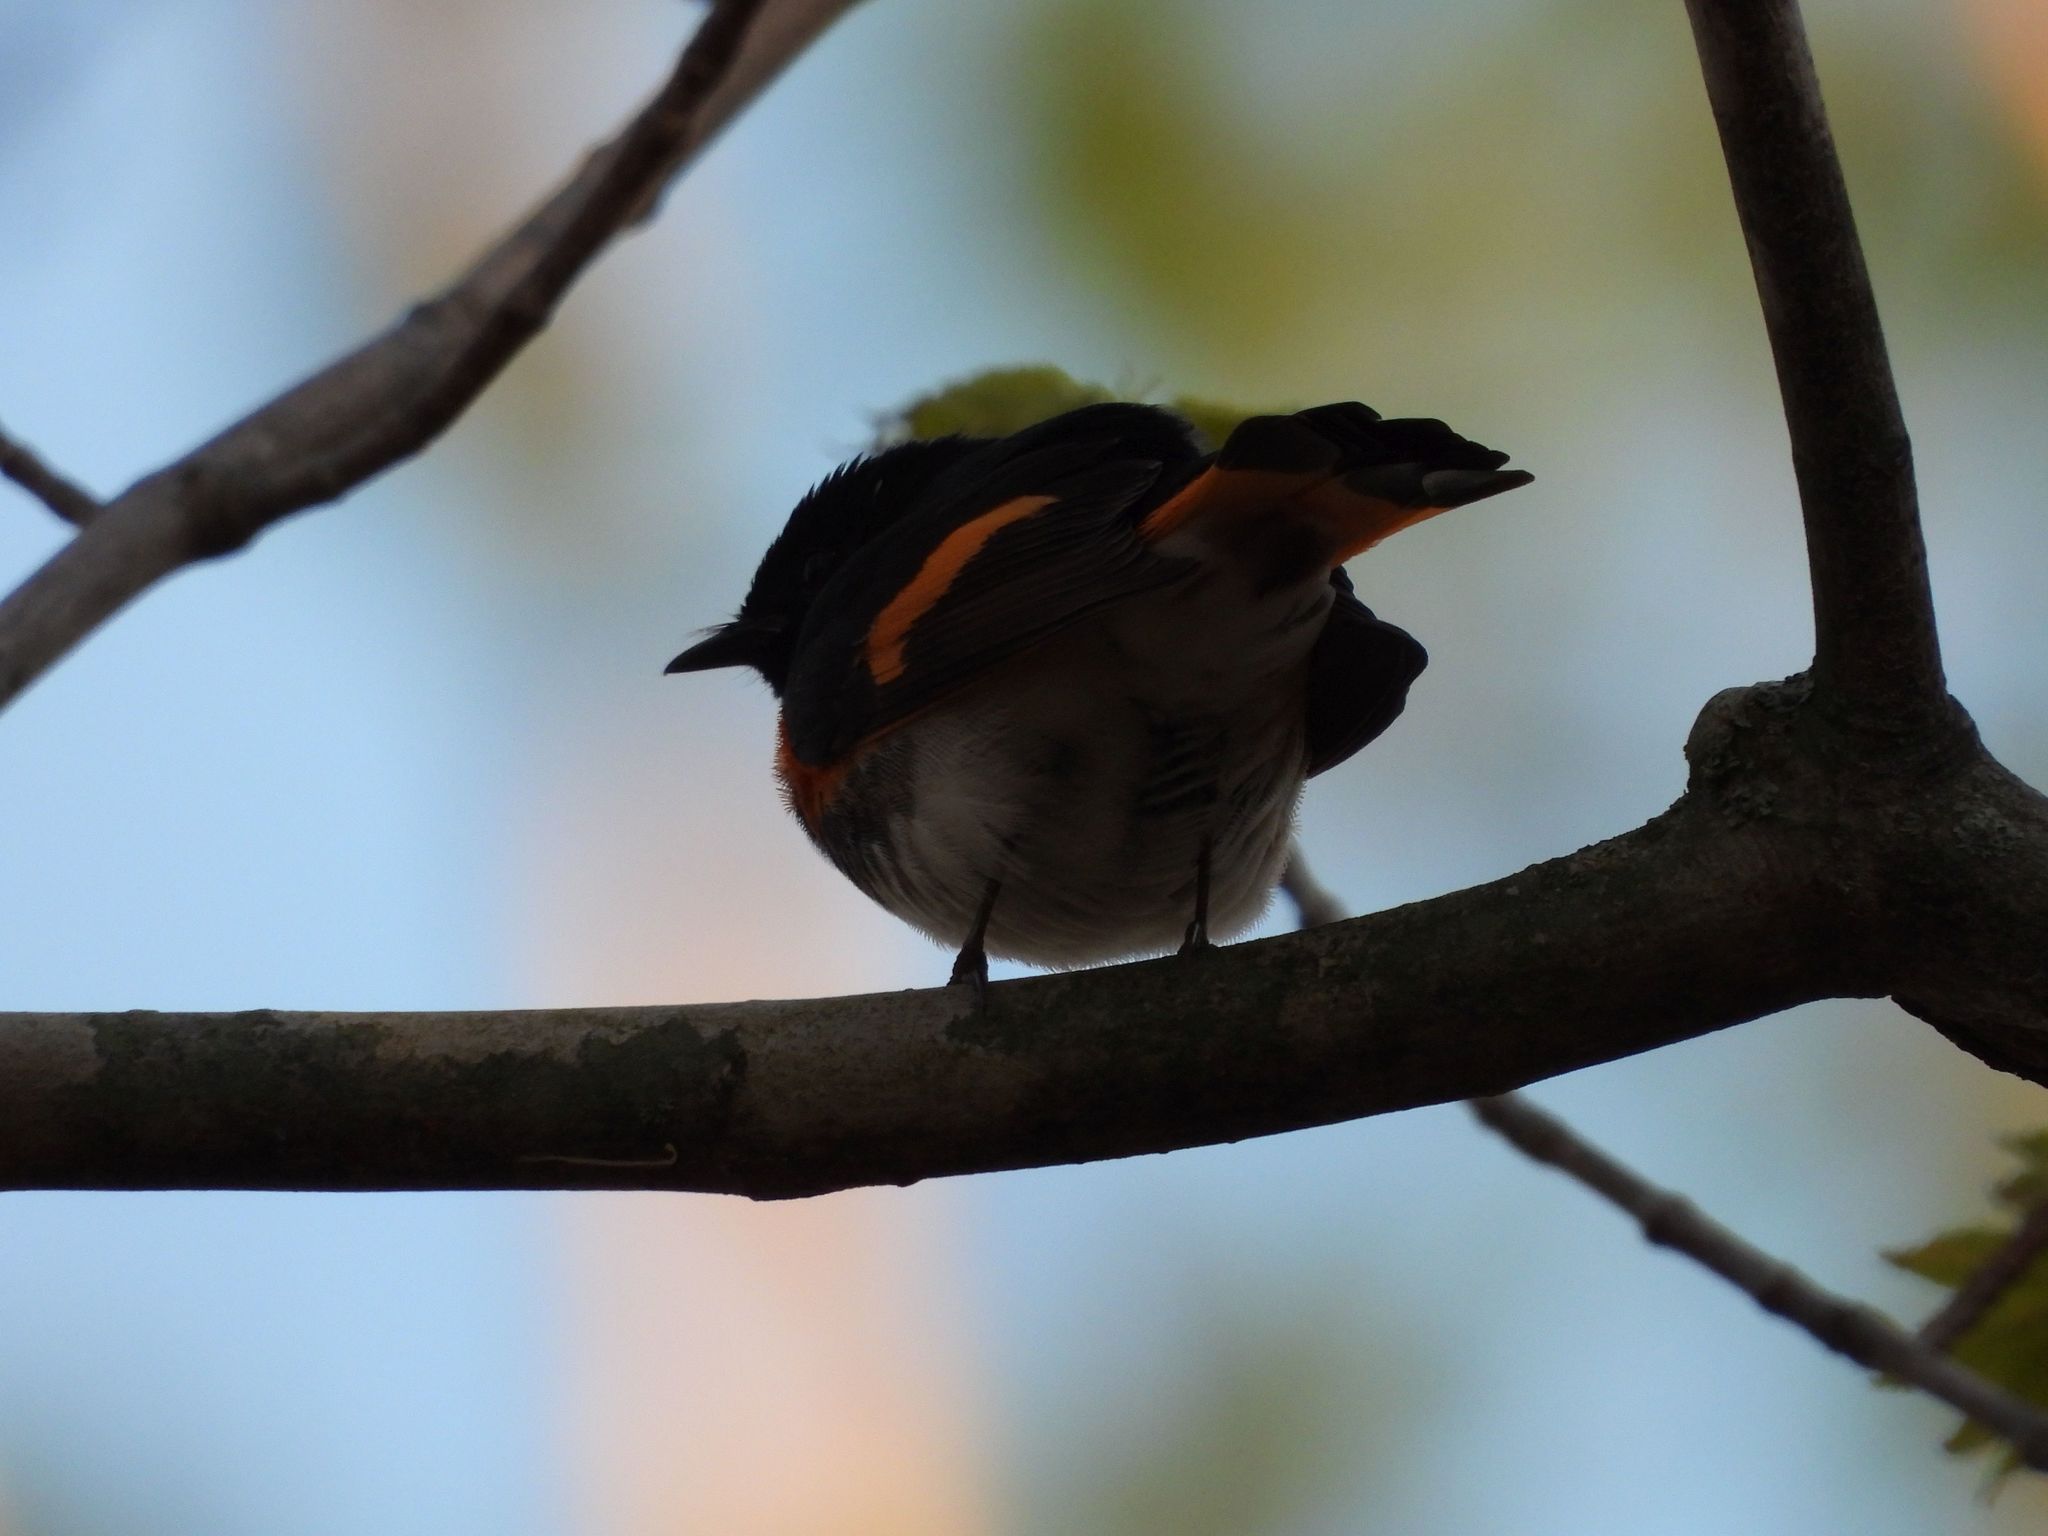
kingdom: Animalia
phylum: Chordata
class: Aves
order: Passeriformes
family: Parulidae
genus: Setophaga
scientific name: Setophaga ruticilla
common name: American redstart
